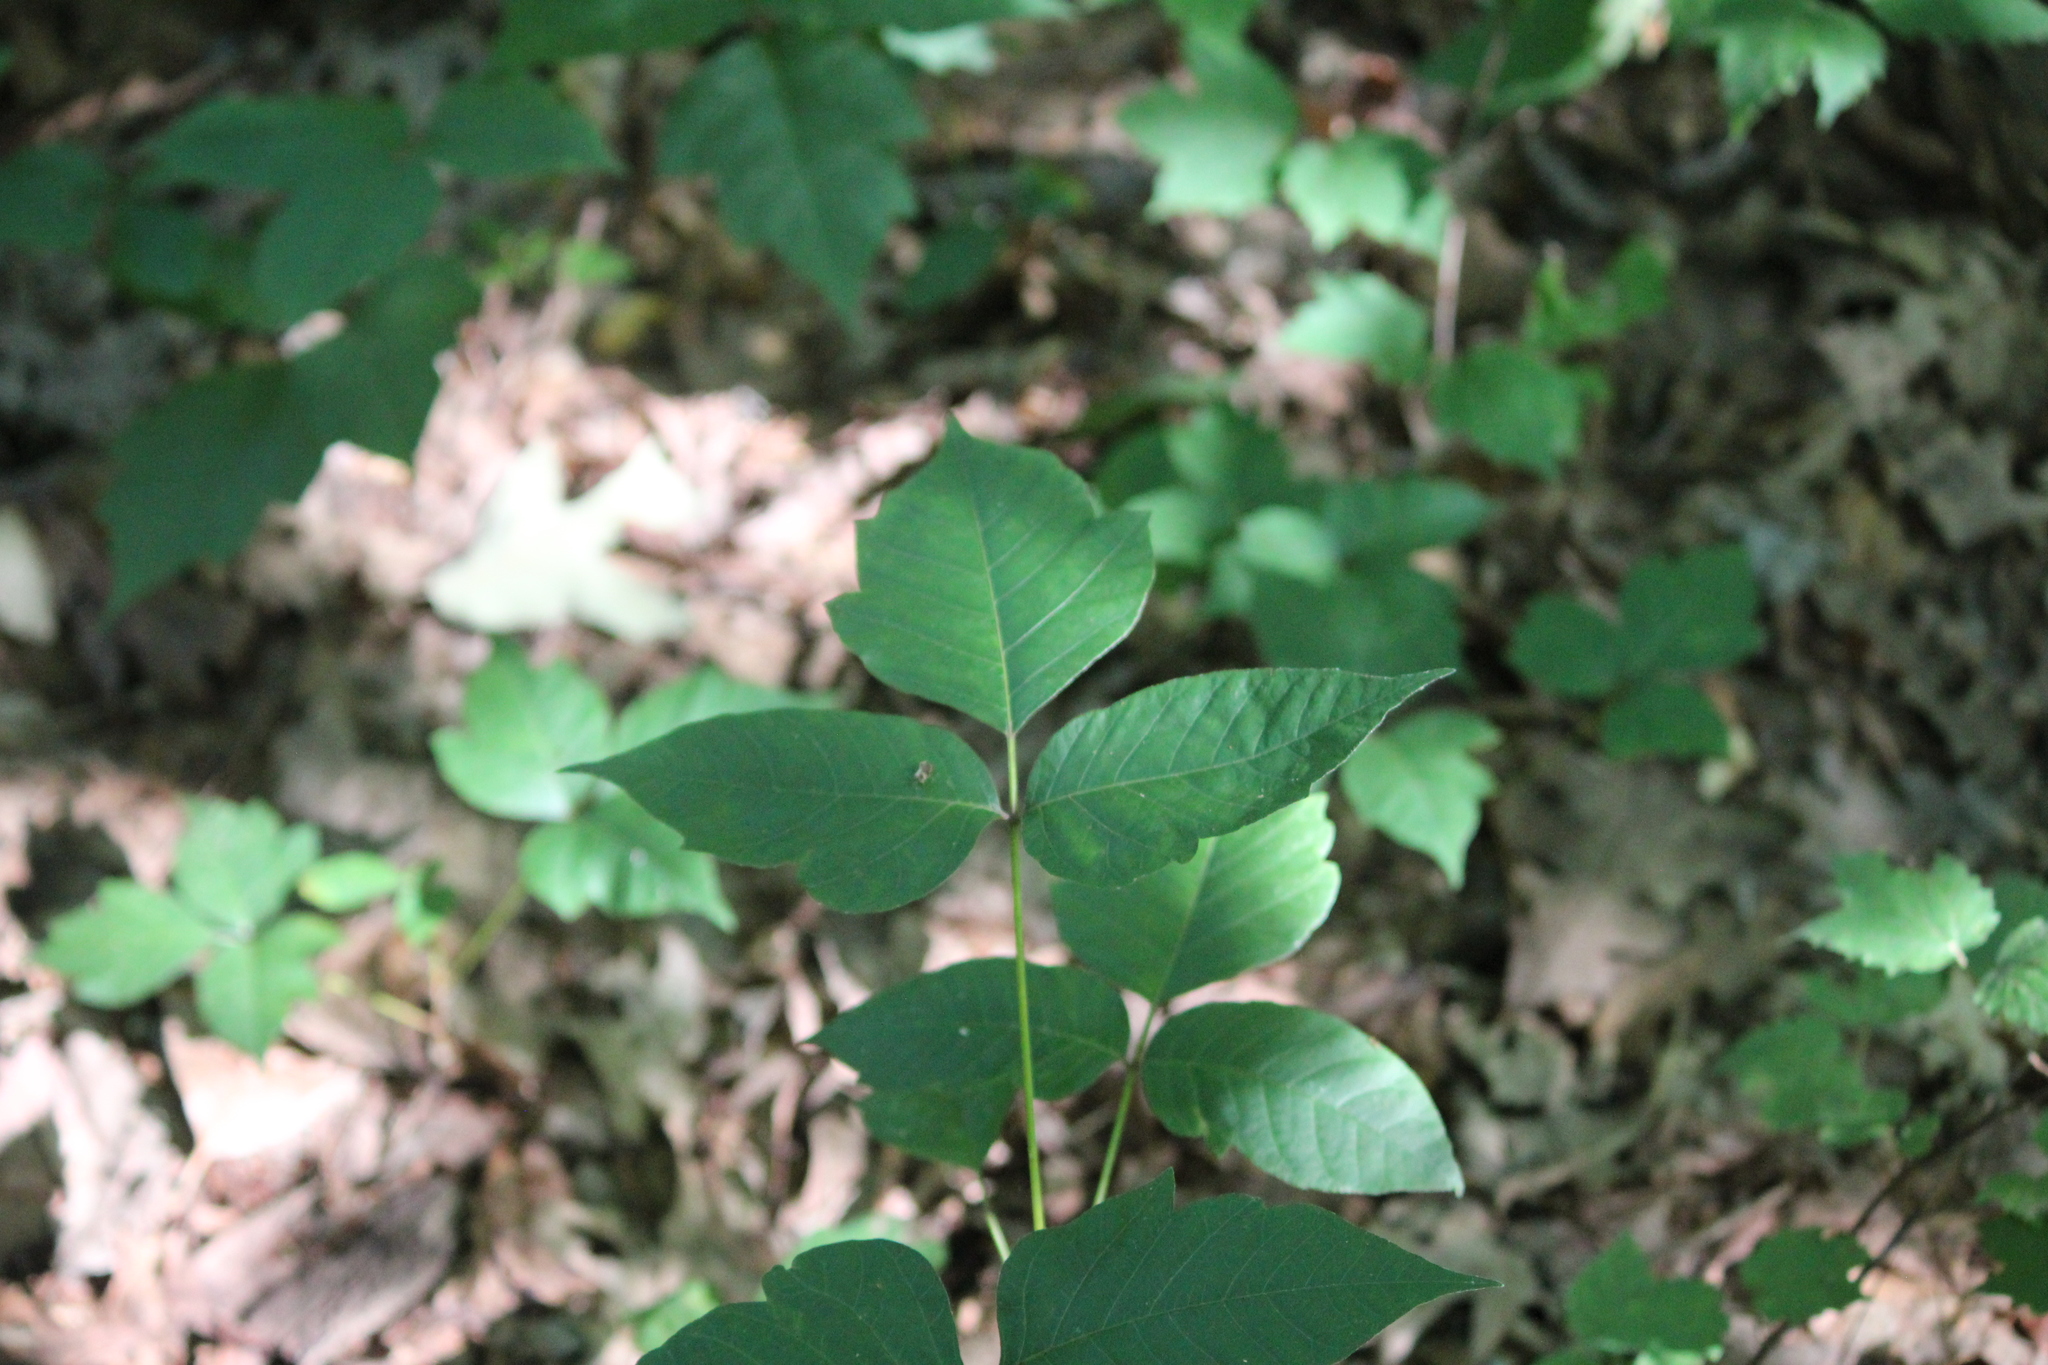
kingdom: Plantae
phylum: Tracheophyta
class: Magnoliopsida
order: Sapindales
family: Anacardiaceae
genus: Toxicodendron
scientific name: Toxicodendron radicans
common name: Poison ivy
